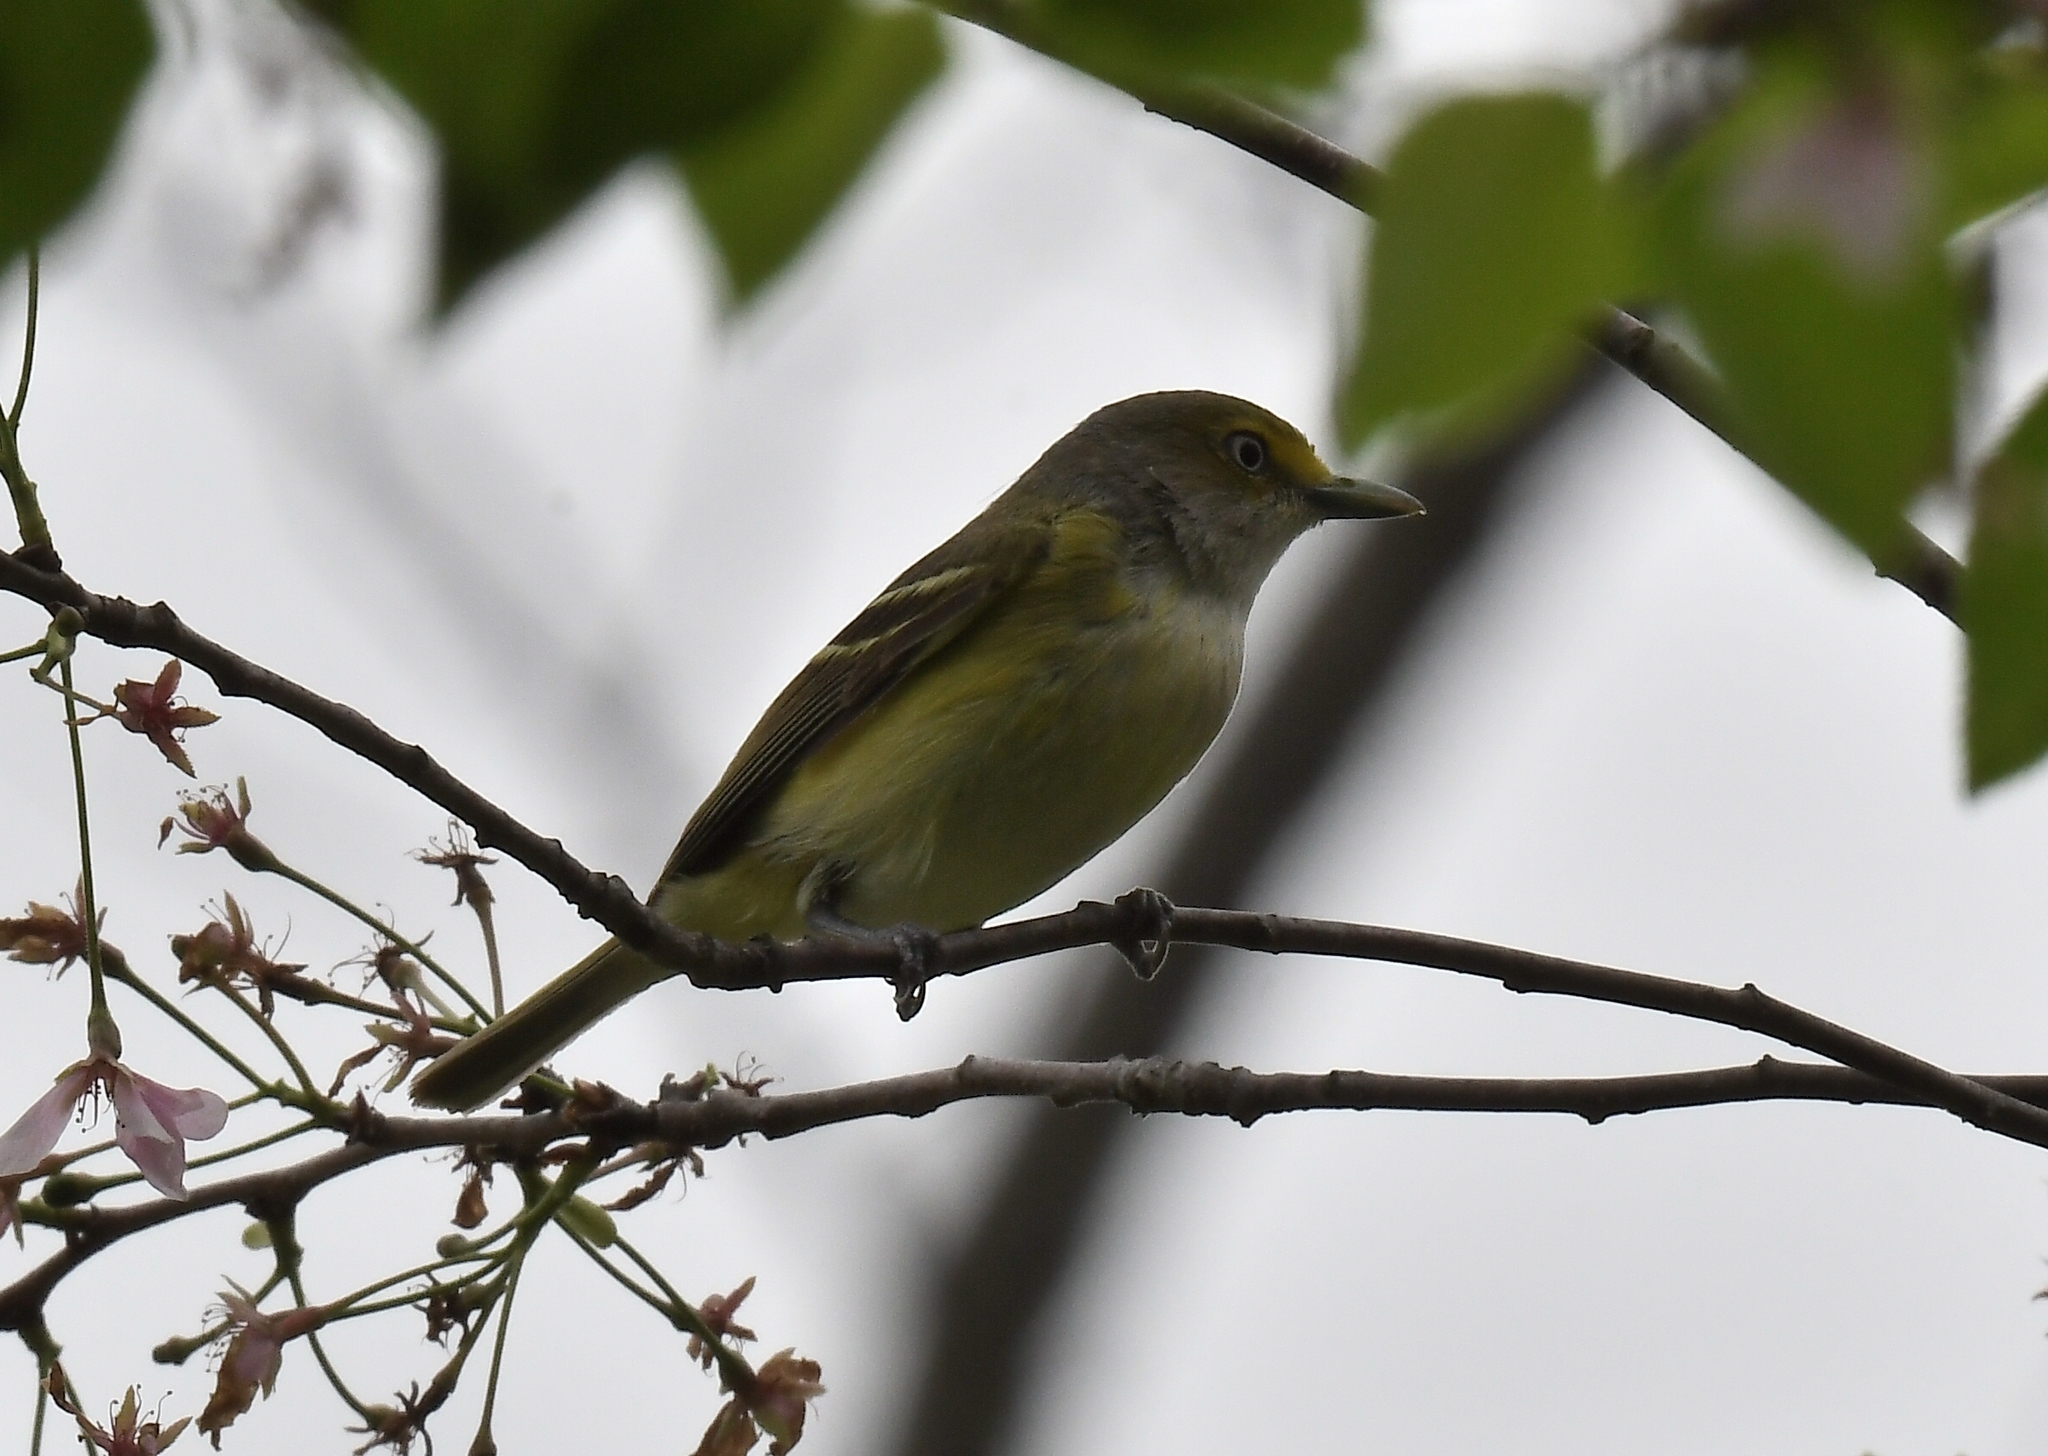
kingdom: Animalia
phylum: Chordata
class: Aves
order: Passeriformes
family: Vireonidae
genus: Vireo
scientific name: Vireo griseus
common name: White-eyed vireo
